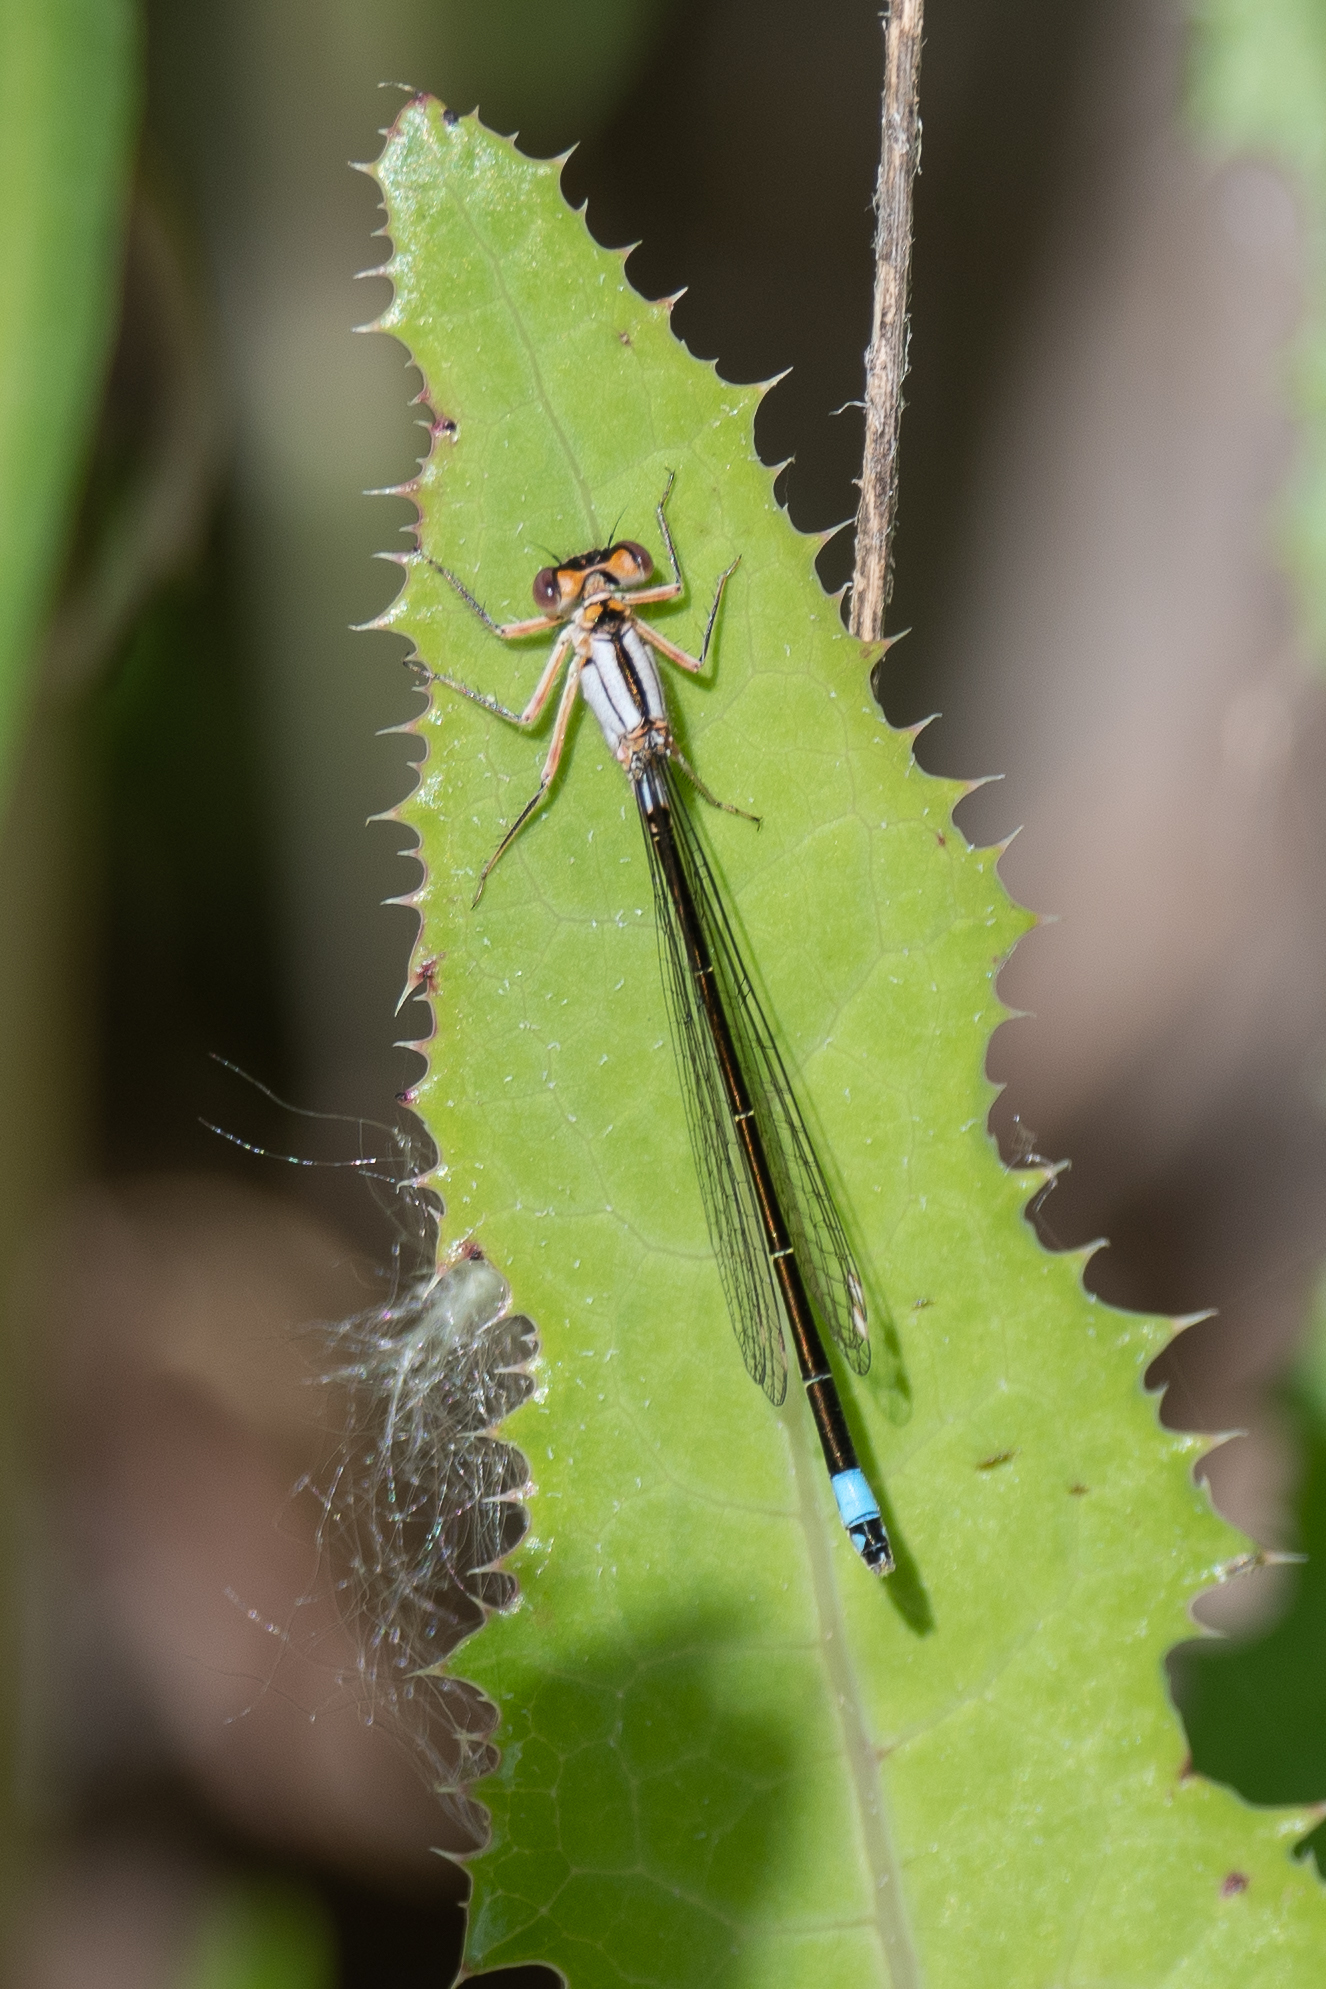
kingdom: Animalia
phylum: Arthropoda
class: Insecta
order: Odonata
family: Coenagrionidae
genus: Ischnura
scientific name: Ischnura cervula
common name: Pacific forktail
